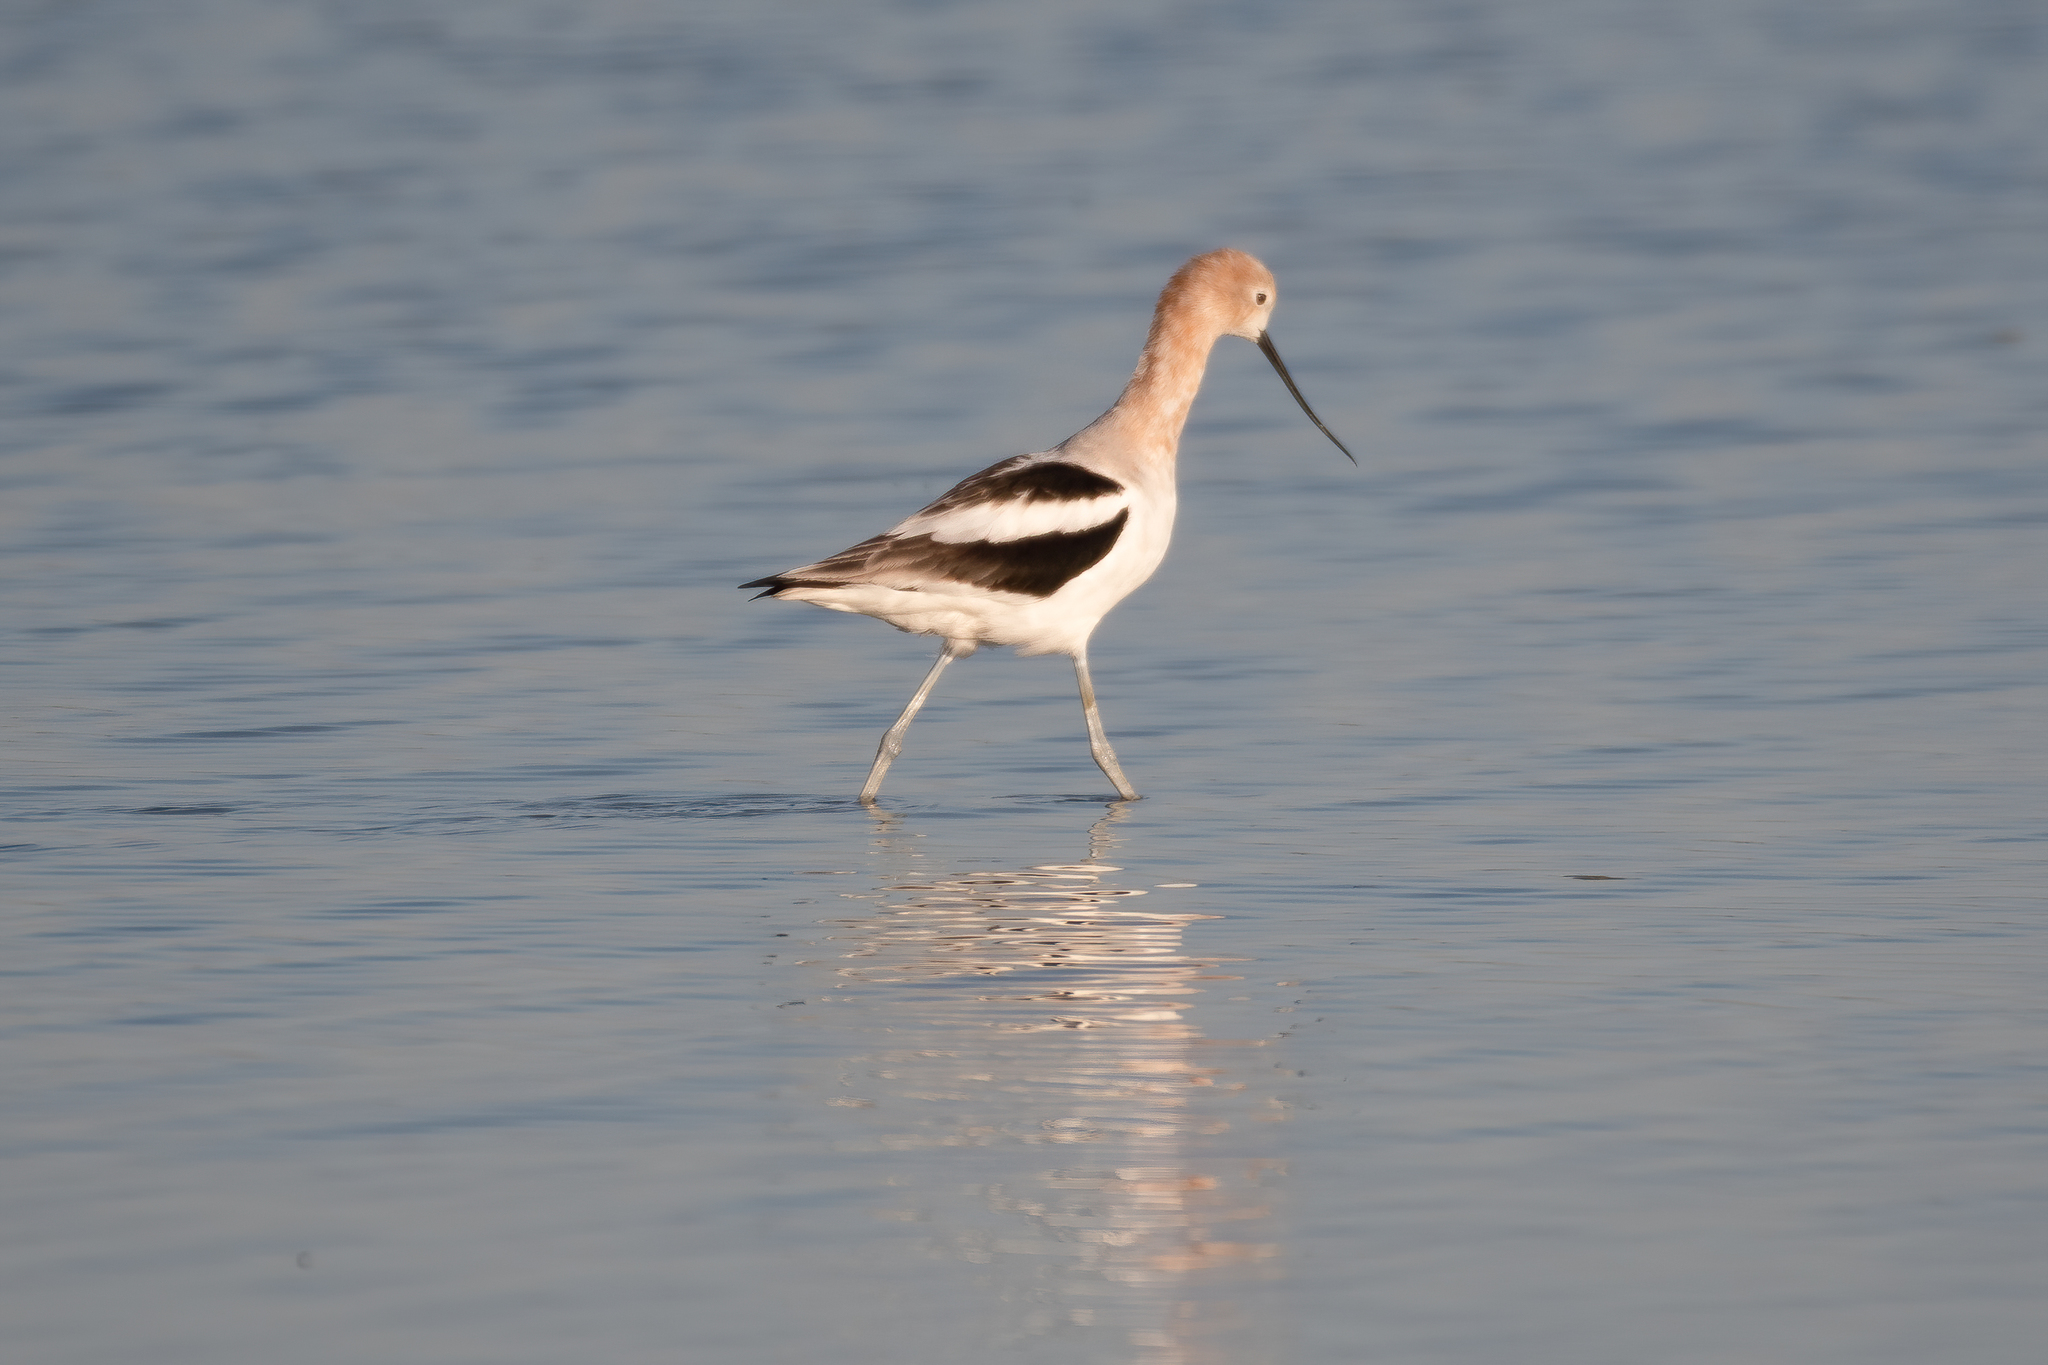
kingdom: Animalia
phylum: Chordata
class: Aves
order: Charadriiformes
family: Recurvirostridae
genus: Recurvirostra
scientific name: Recurvirostra americana
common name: American avocet
